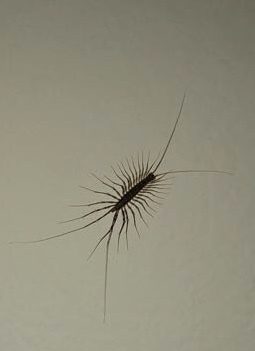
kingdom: Animalia
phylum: Arthropoda
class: Chilopoda
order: Scutigeromorpha
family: Scutigeridae
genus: Scutigera
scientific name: Scutigera coleoptrata
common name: House centipede
